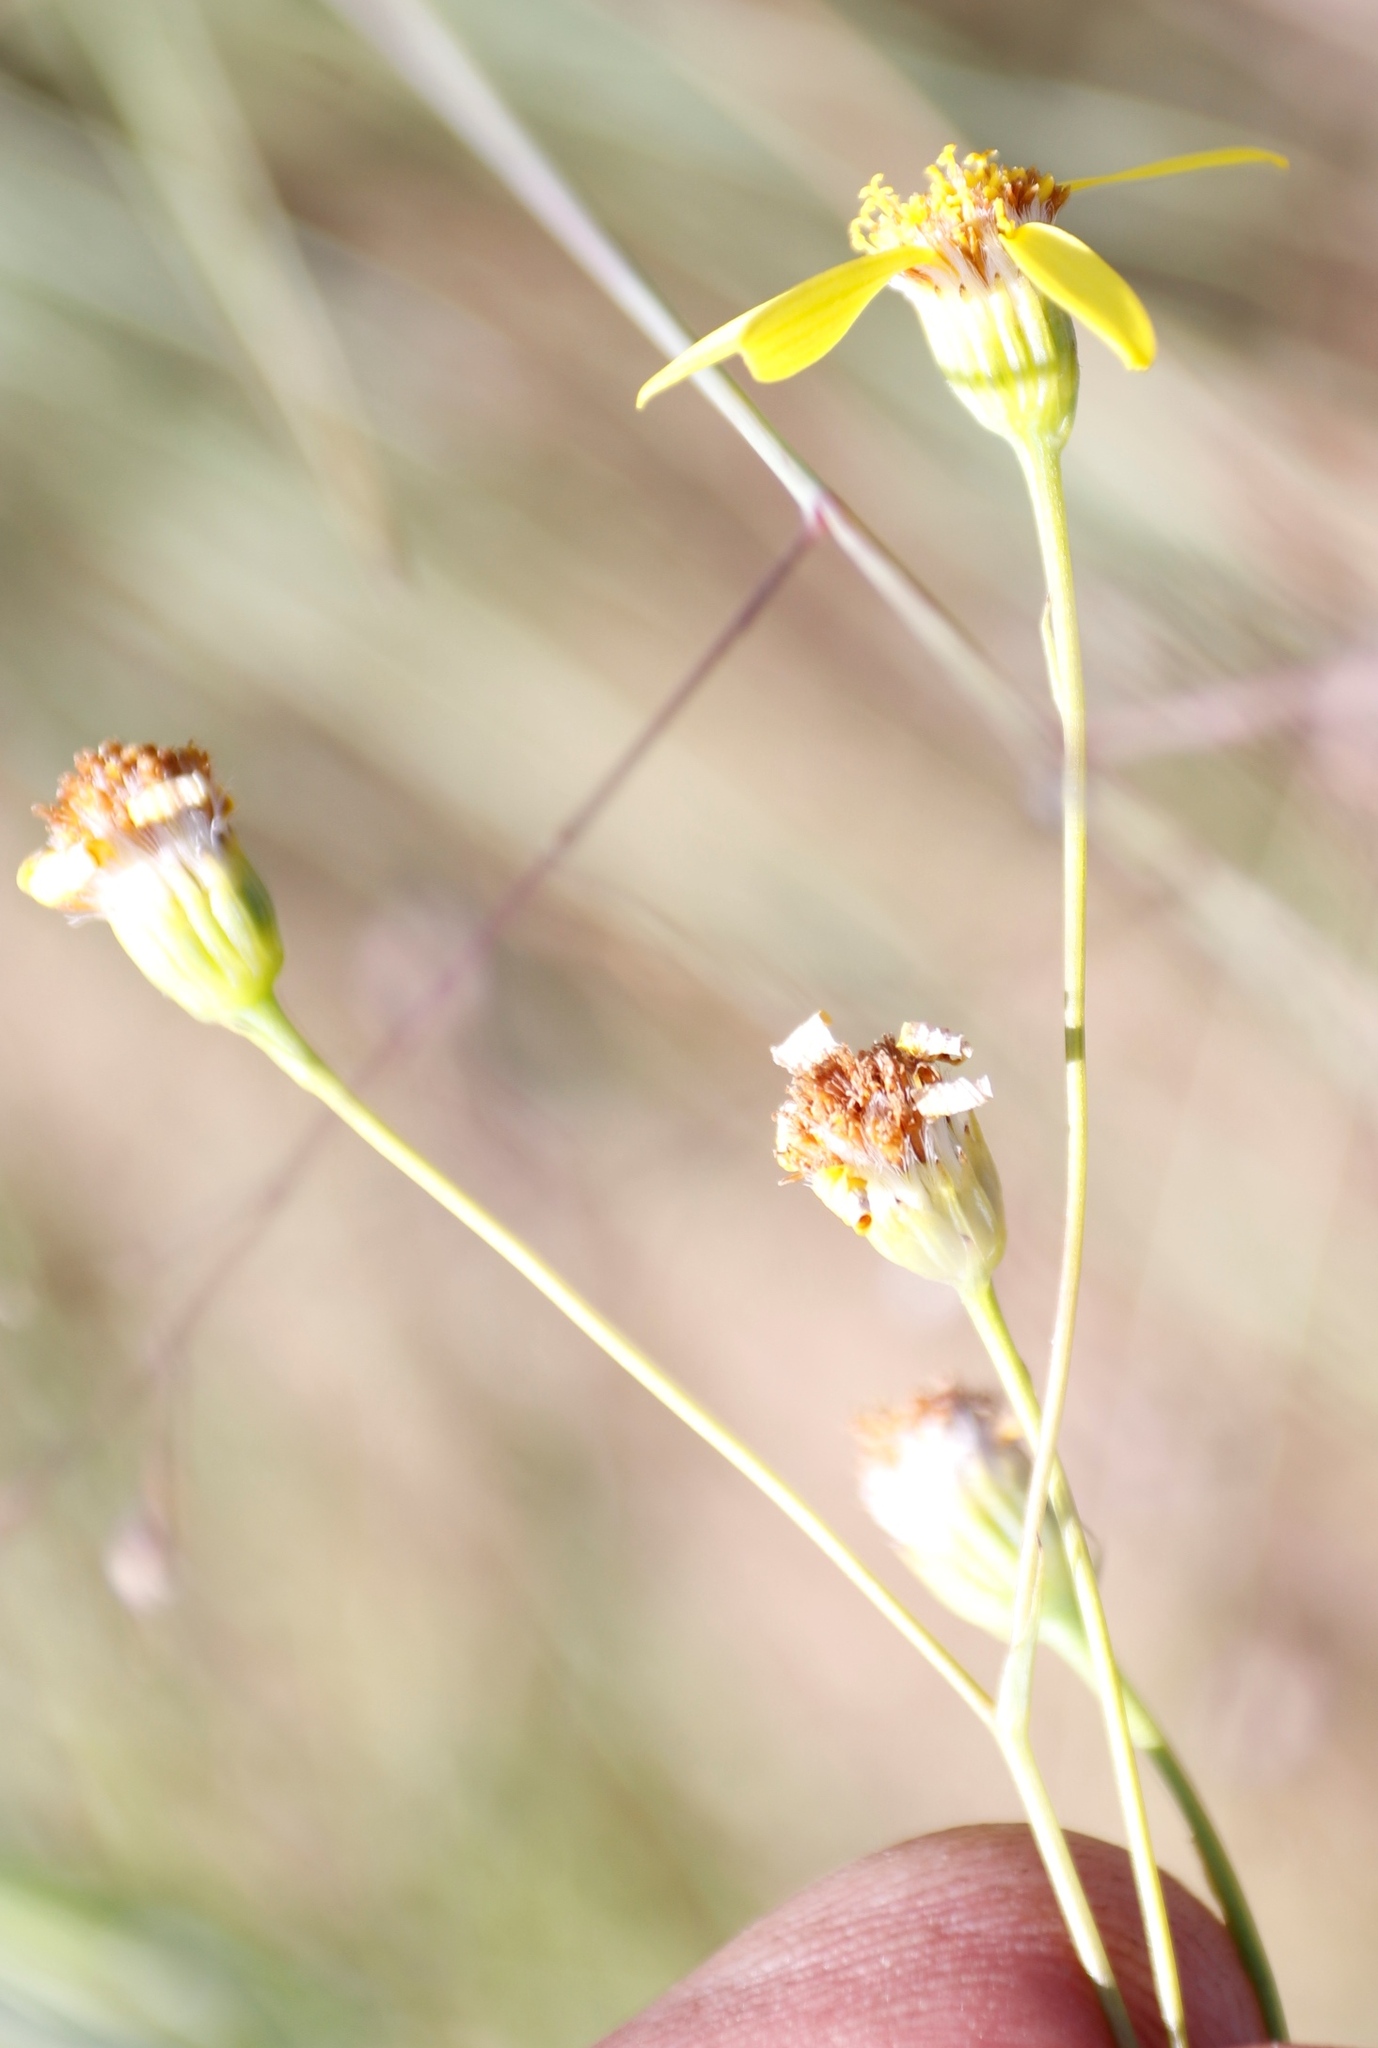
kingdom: Plantae
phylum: Tracheophyta
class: Magnoliopsida
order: Asterales
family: Asteraceae
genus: Senecio
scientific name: Senecio glaberrimus
